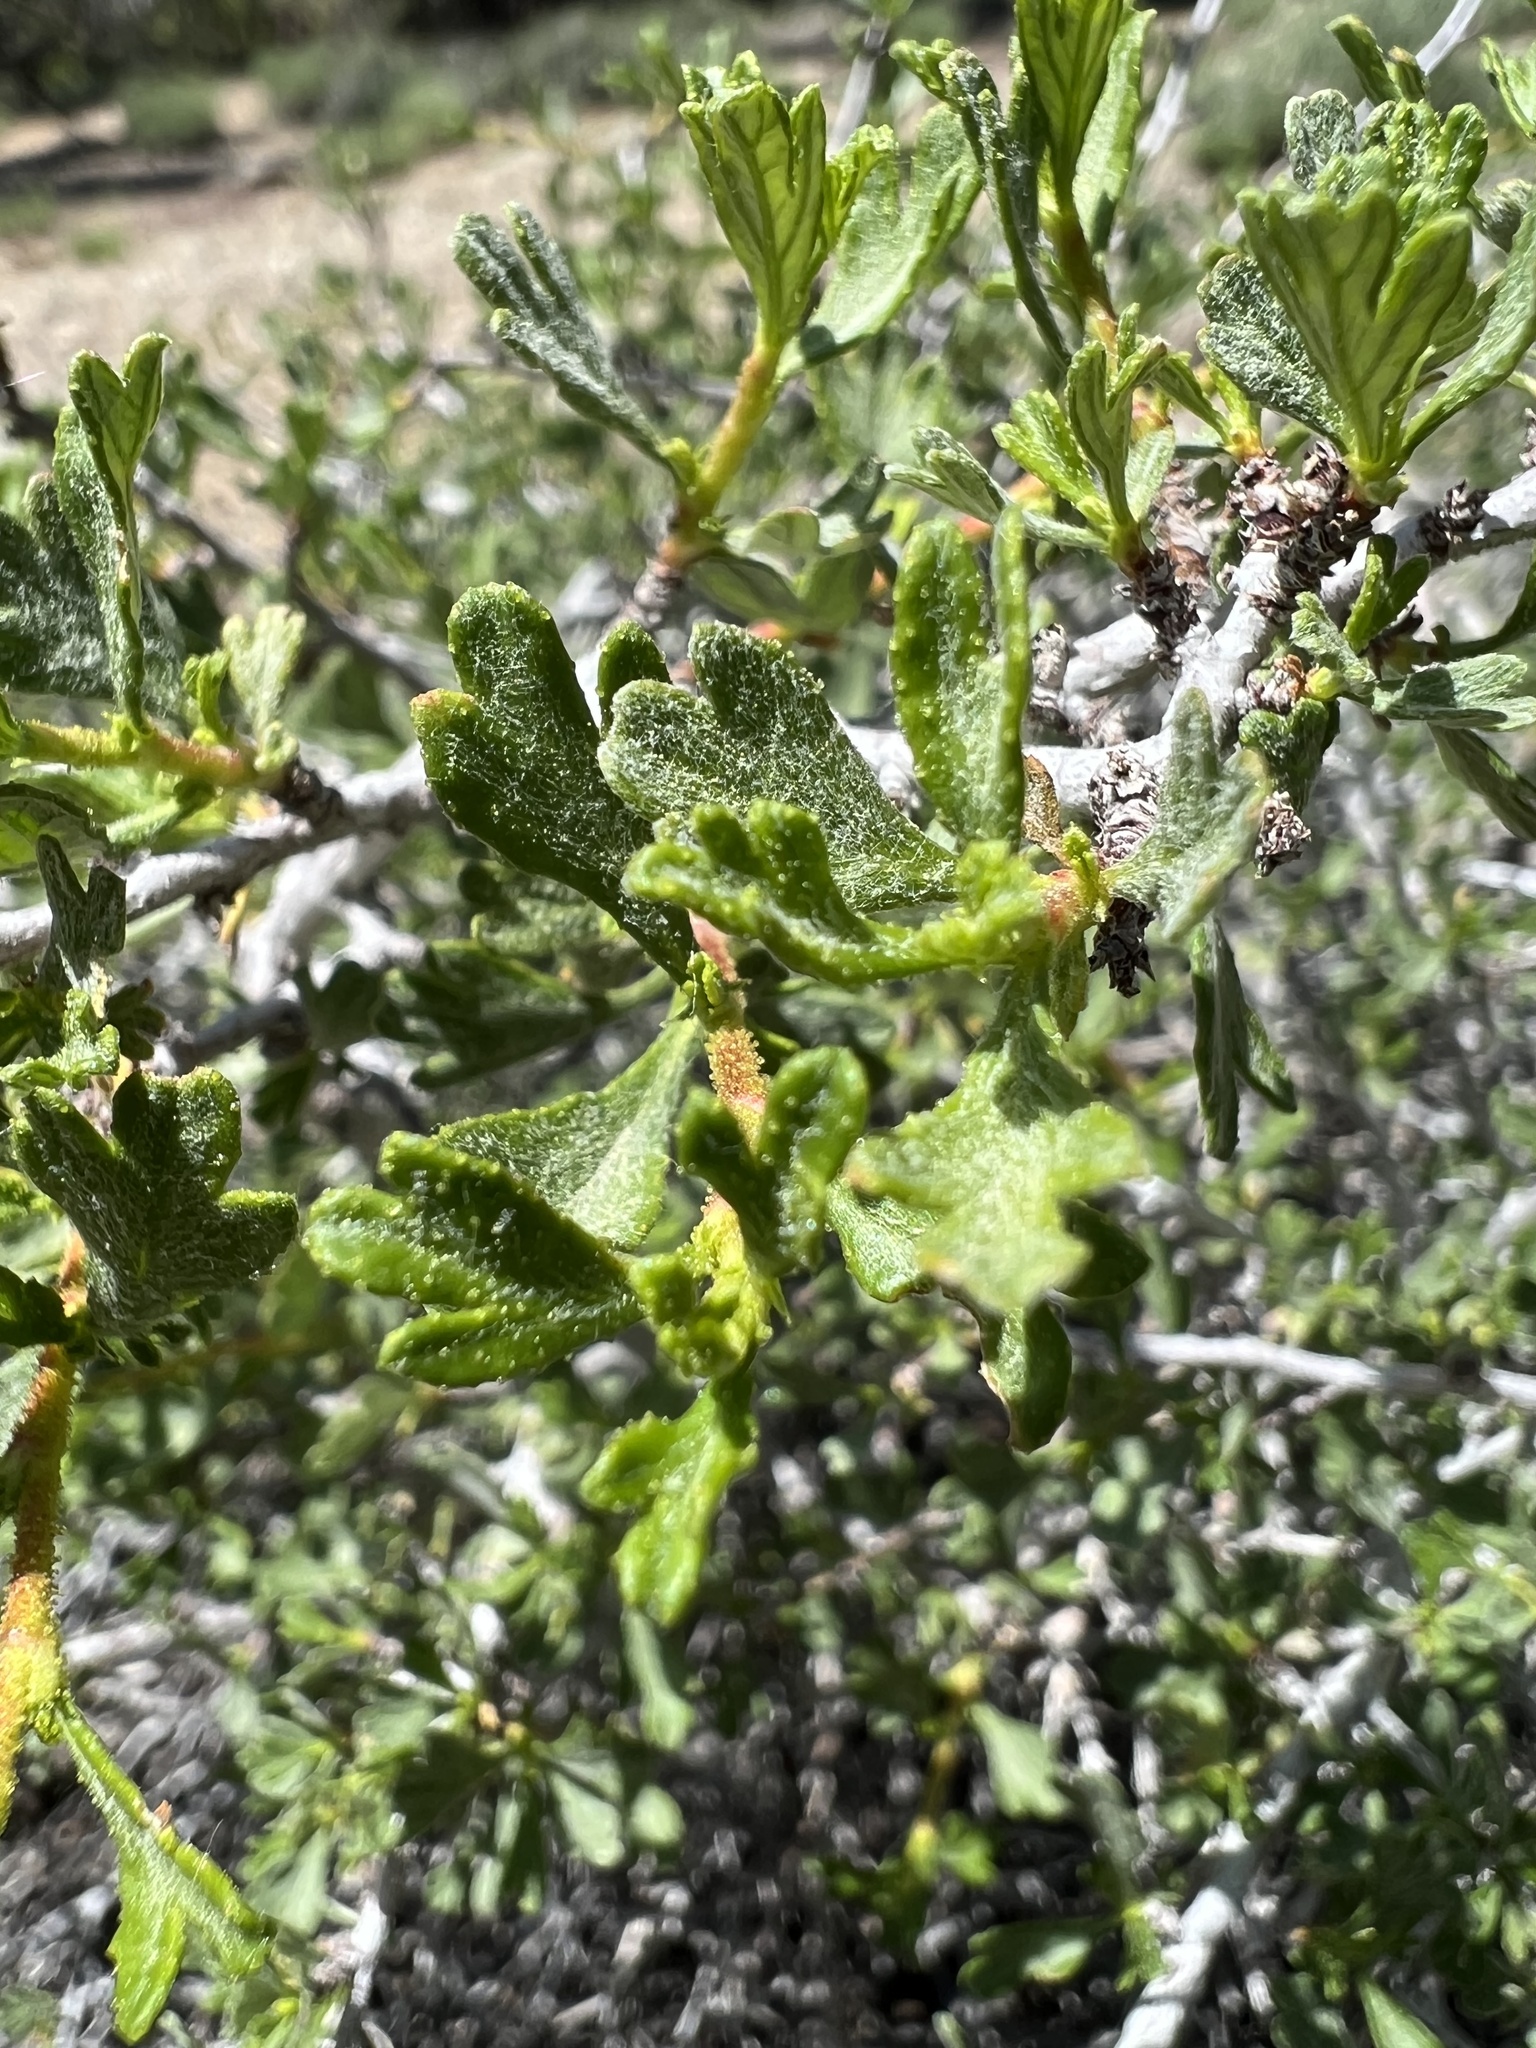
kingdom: Plantae
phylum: Tracheophyta
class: Magnoliopsida
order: Rosales
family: Rosaceae
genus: Purshia
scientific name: Purshia tridentata
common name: Antelope bitterbrush
